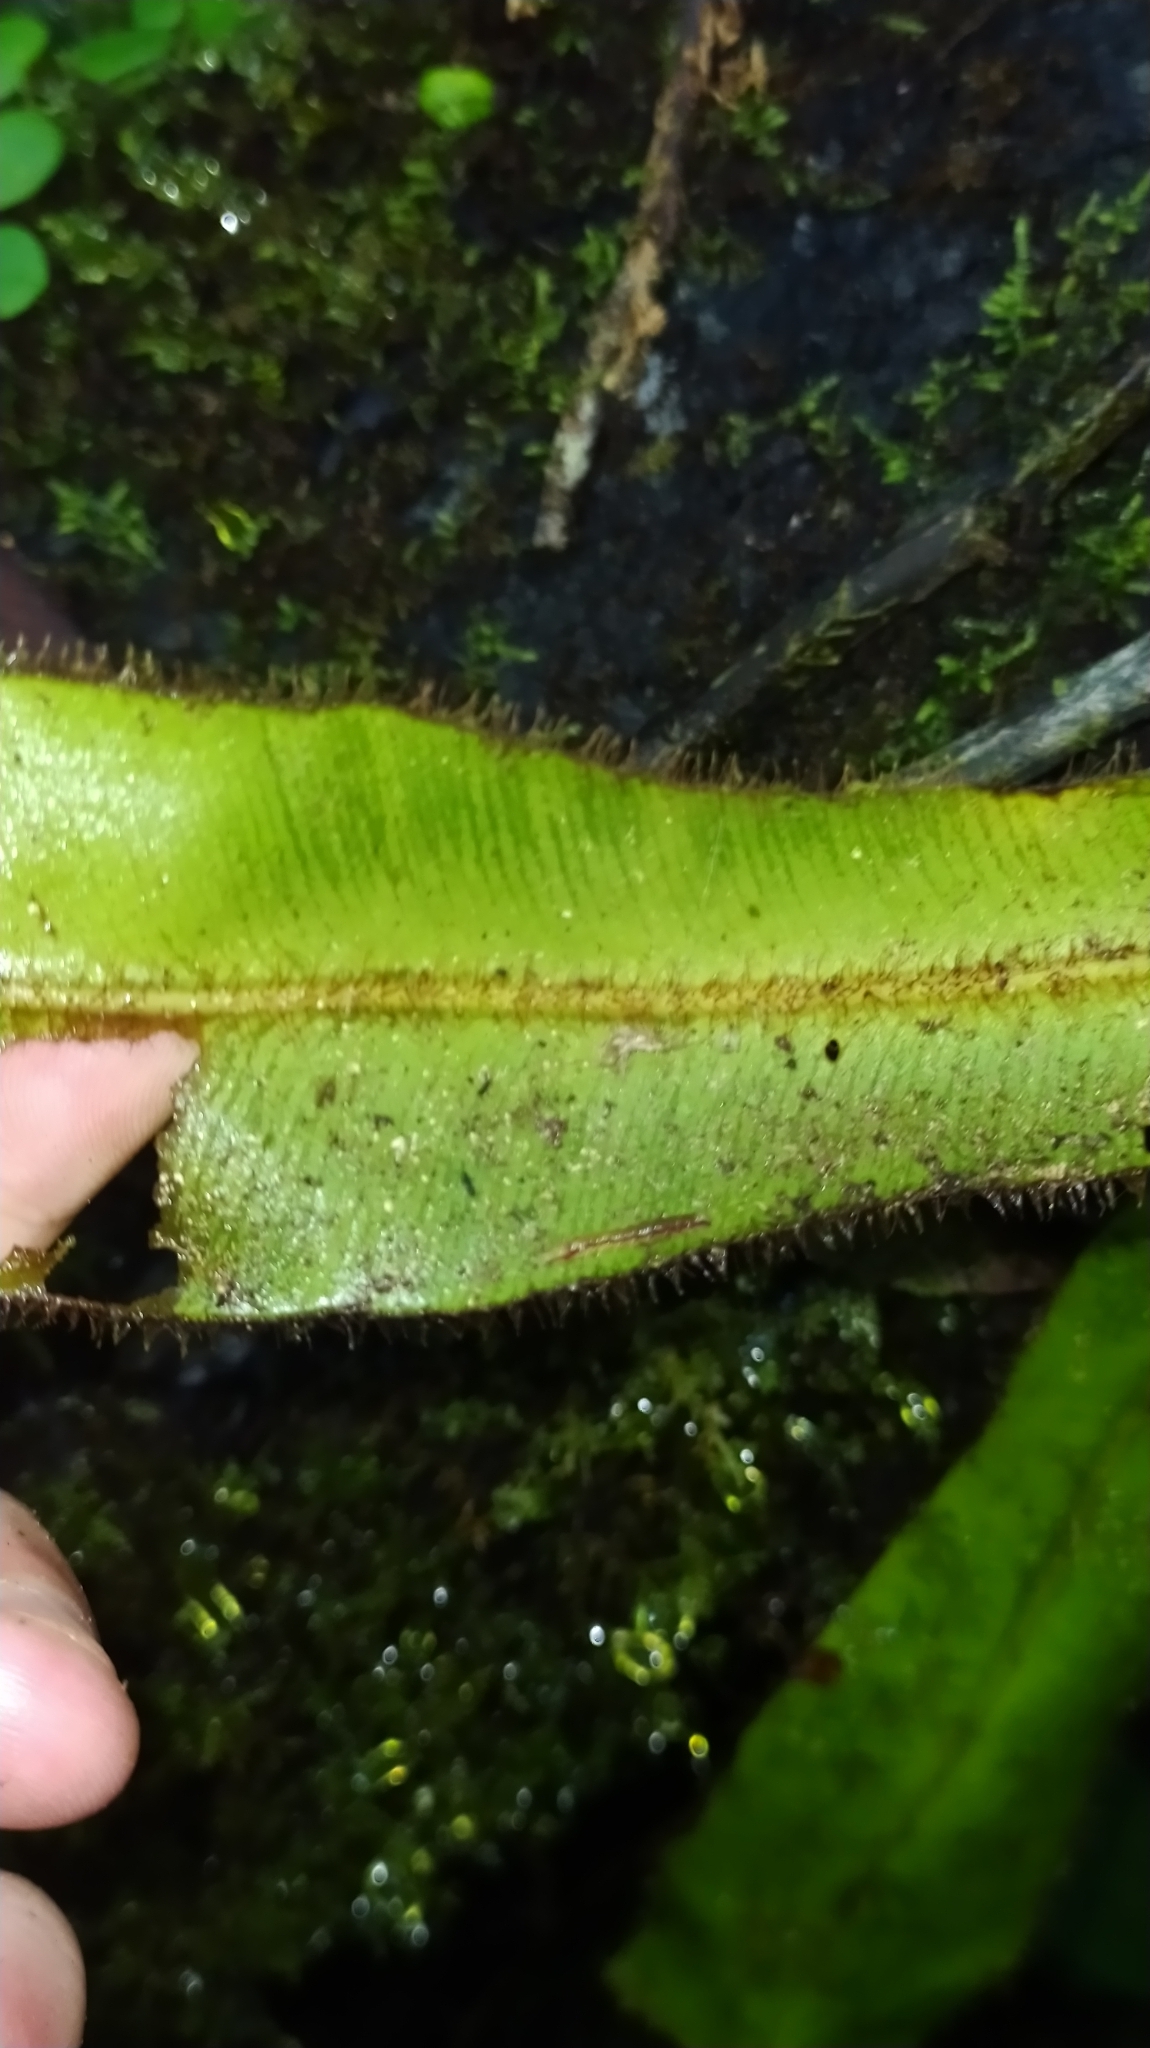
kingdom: Plantae
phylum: Tracheophyta
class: Polypodiopsida
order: Polypodiales
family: Dryopteridaceae
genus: Elaphoglossum
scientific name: Elaphoglossum raywaense
